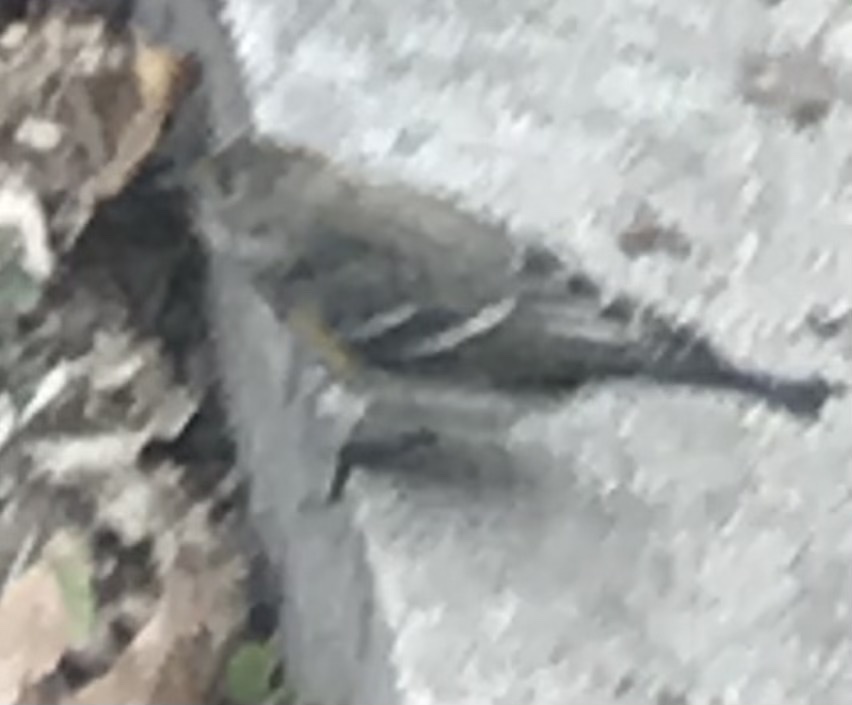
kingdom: Animalia
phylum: Chordata
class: Aves
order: Passeriformes
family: Parulidae
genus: Setophaga
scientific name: Setophaga coronata
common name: Myrtle warbler
